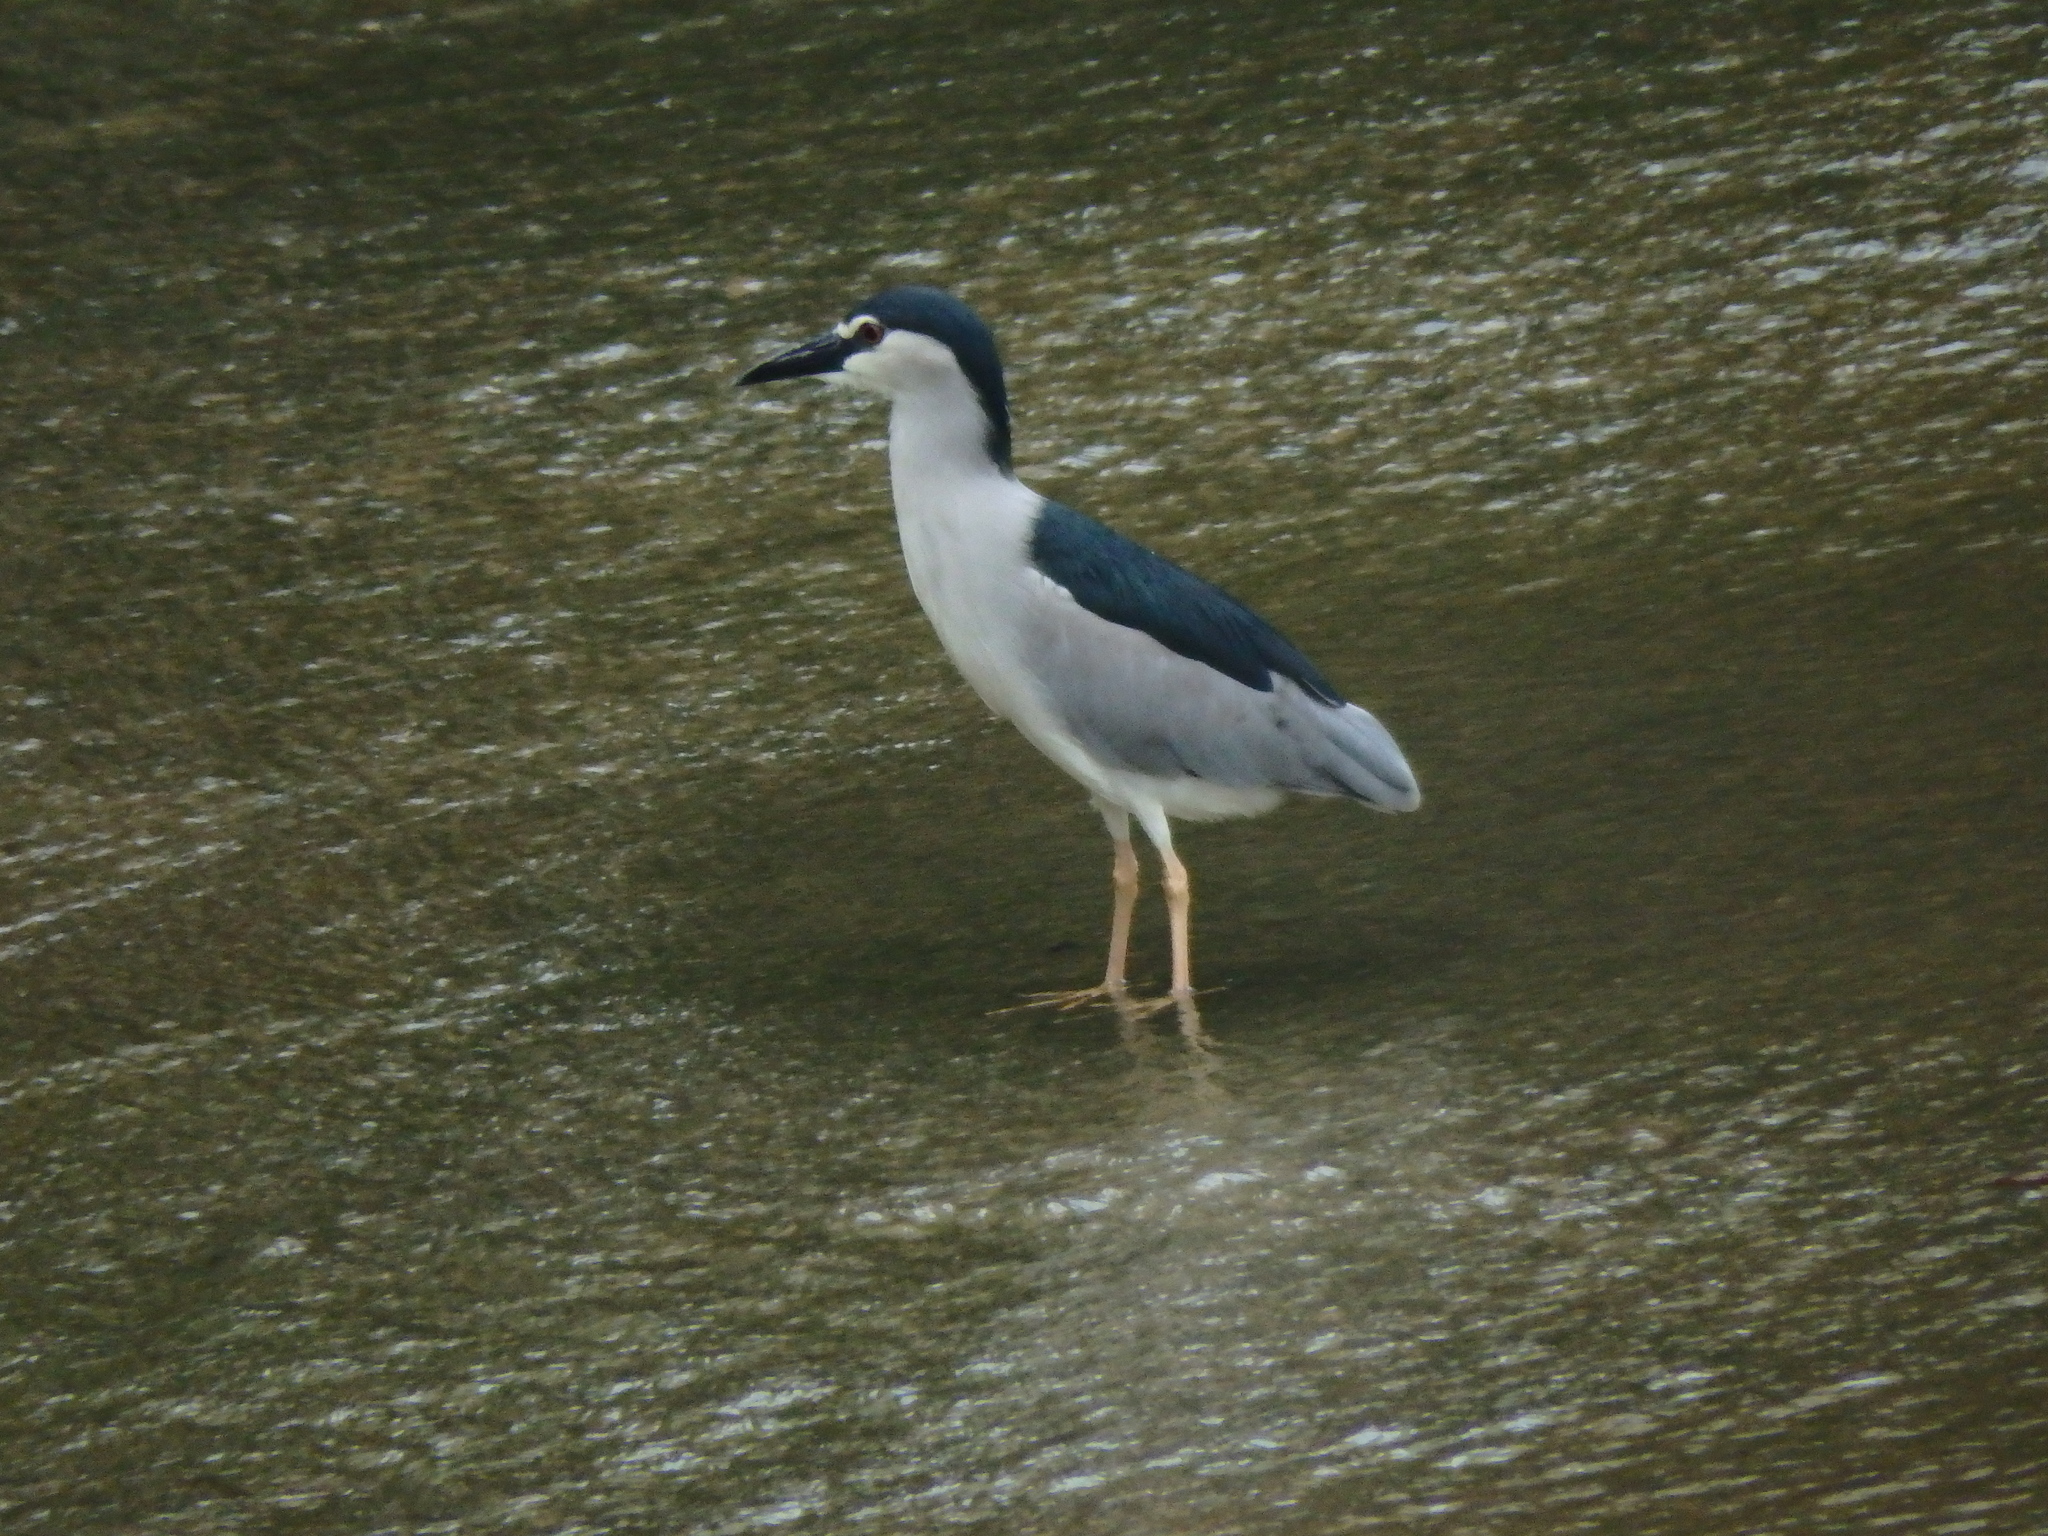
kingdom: Animalia
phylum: Chordata
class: Aves
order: Pelecaniformes
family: Ardeidae
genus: Nycticorax
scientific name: Nycticorax nycticorax
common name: Black-crowned night heron
